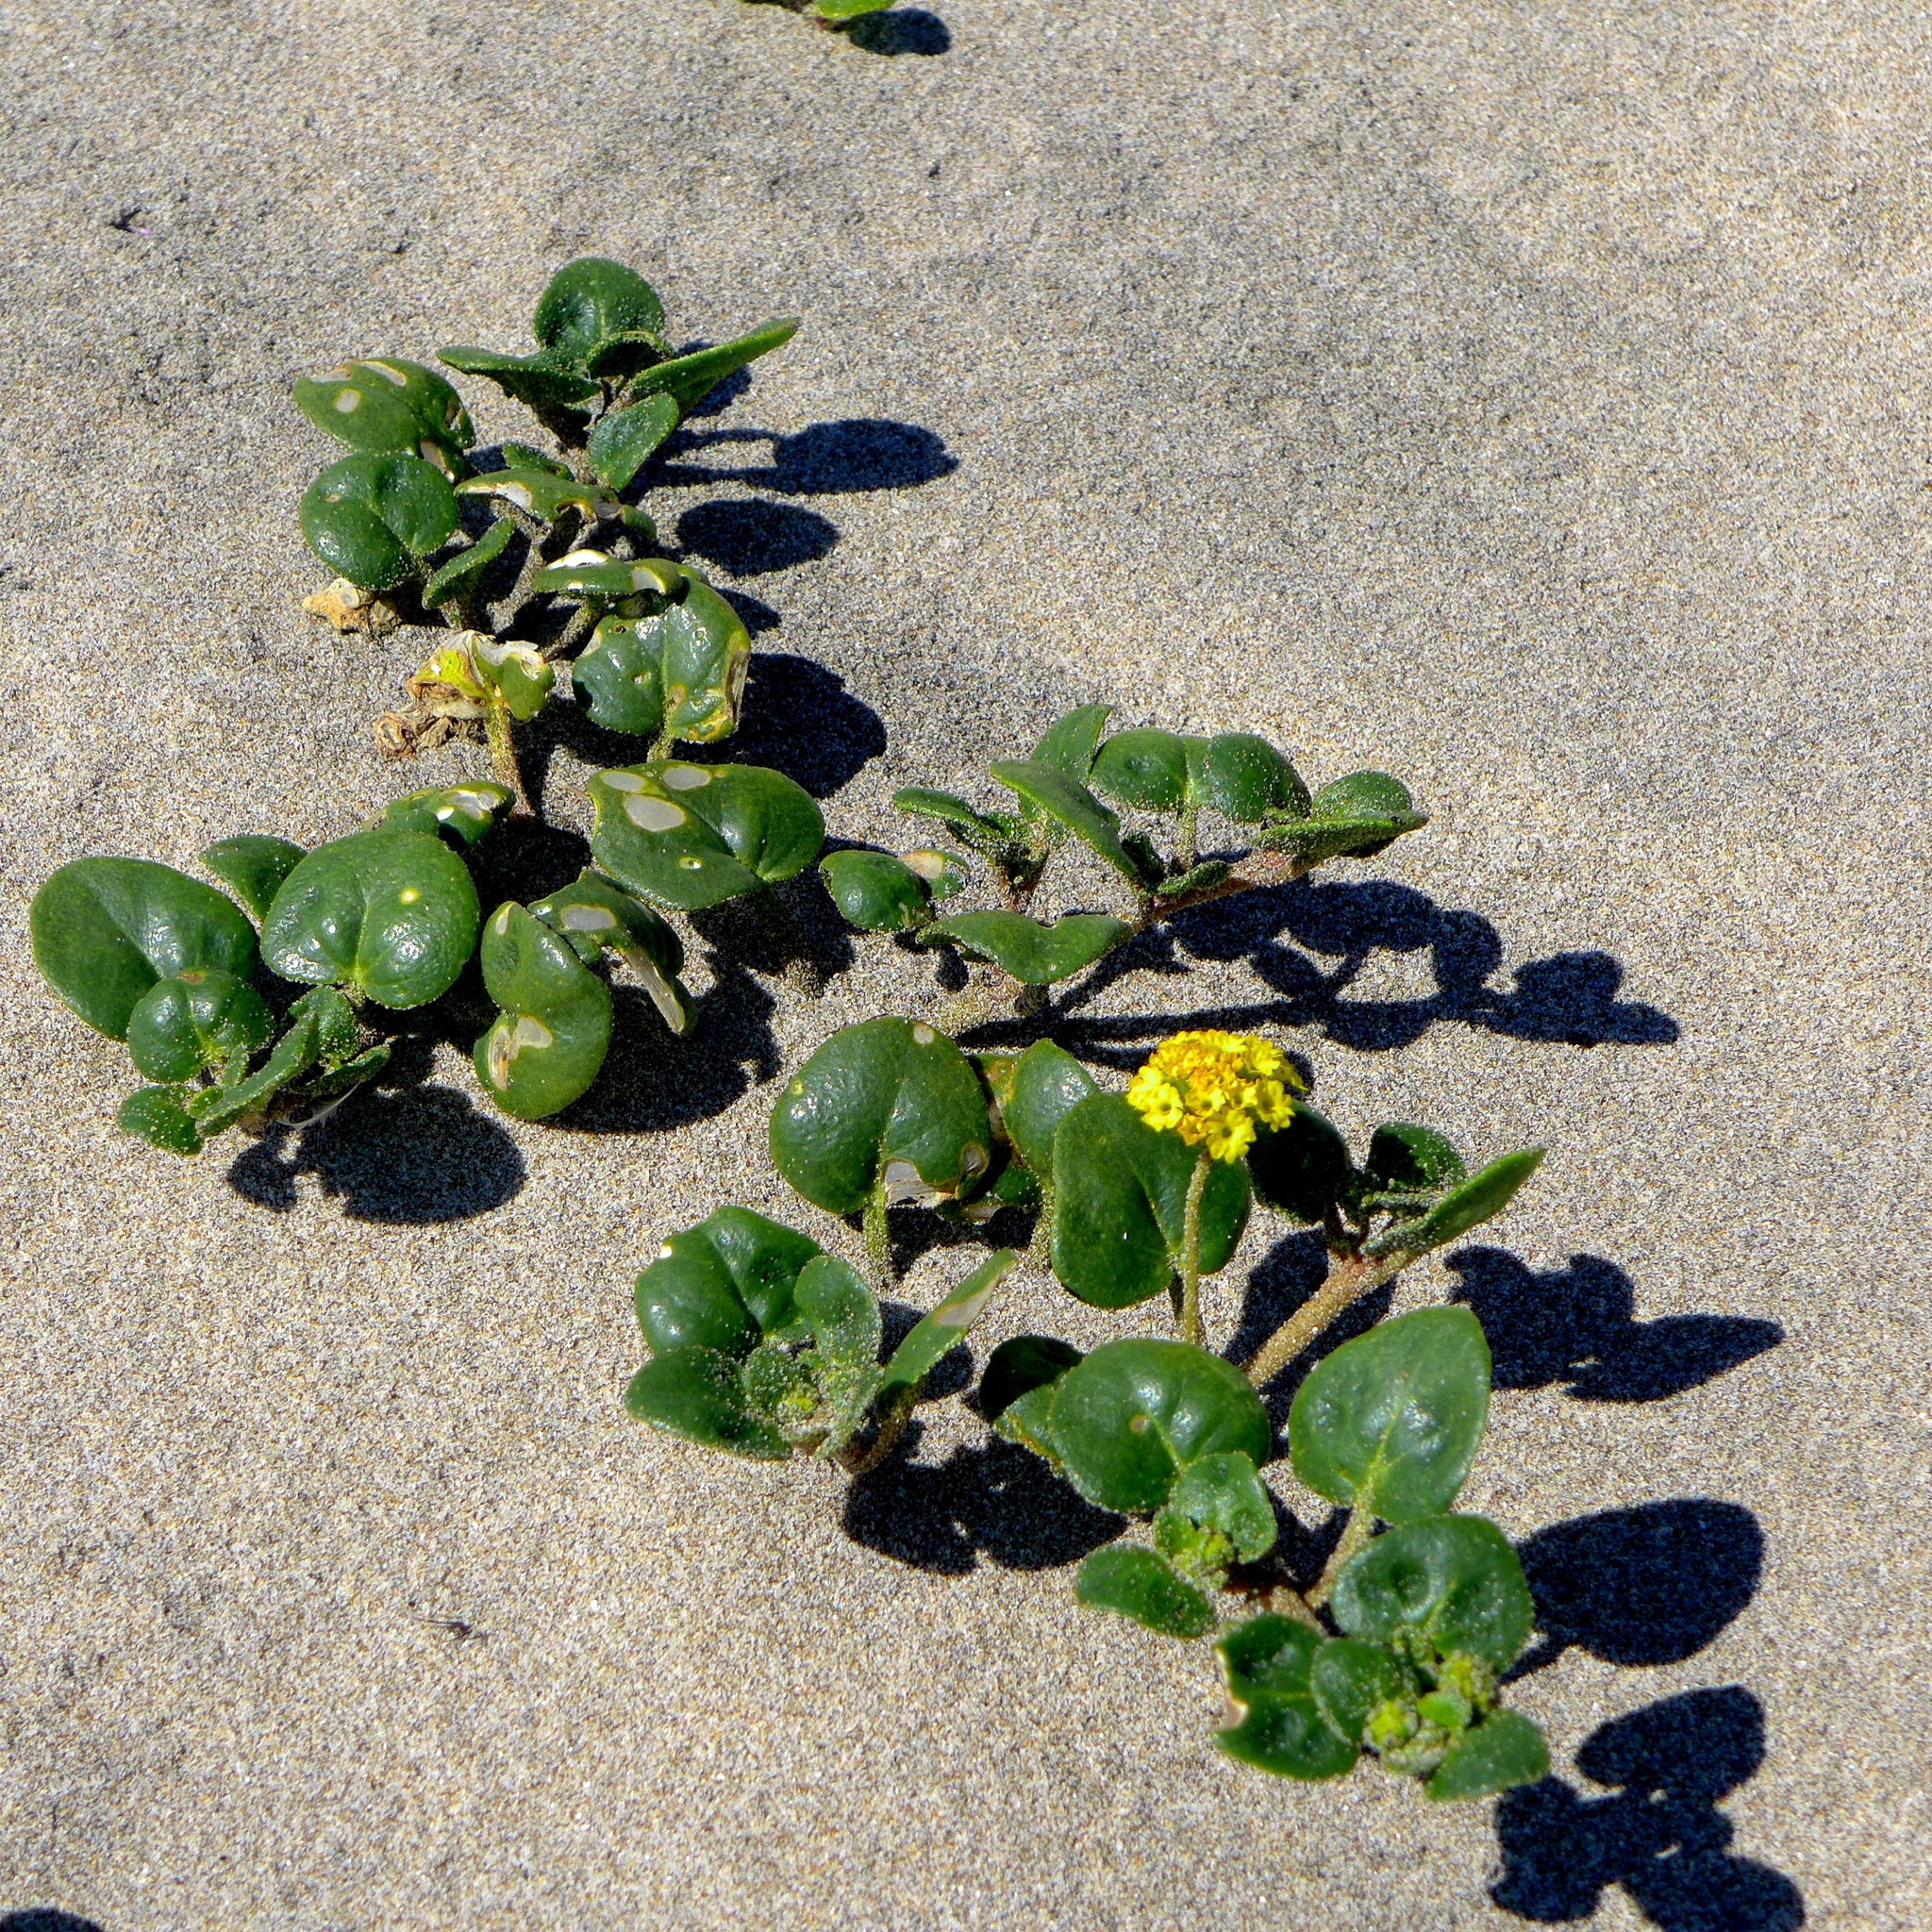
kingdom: Plantae
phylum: Tracheophyta
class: Magnoliopsida
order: Caryophyllales
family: Nyctaginaceae
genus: Abronia
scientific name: Abronia latifolia
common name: Yellow sand-verbena
